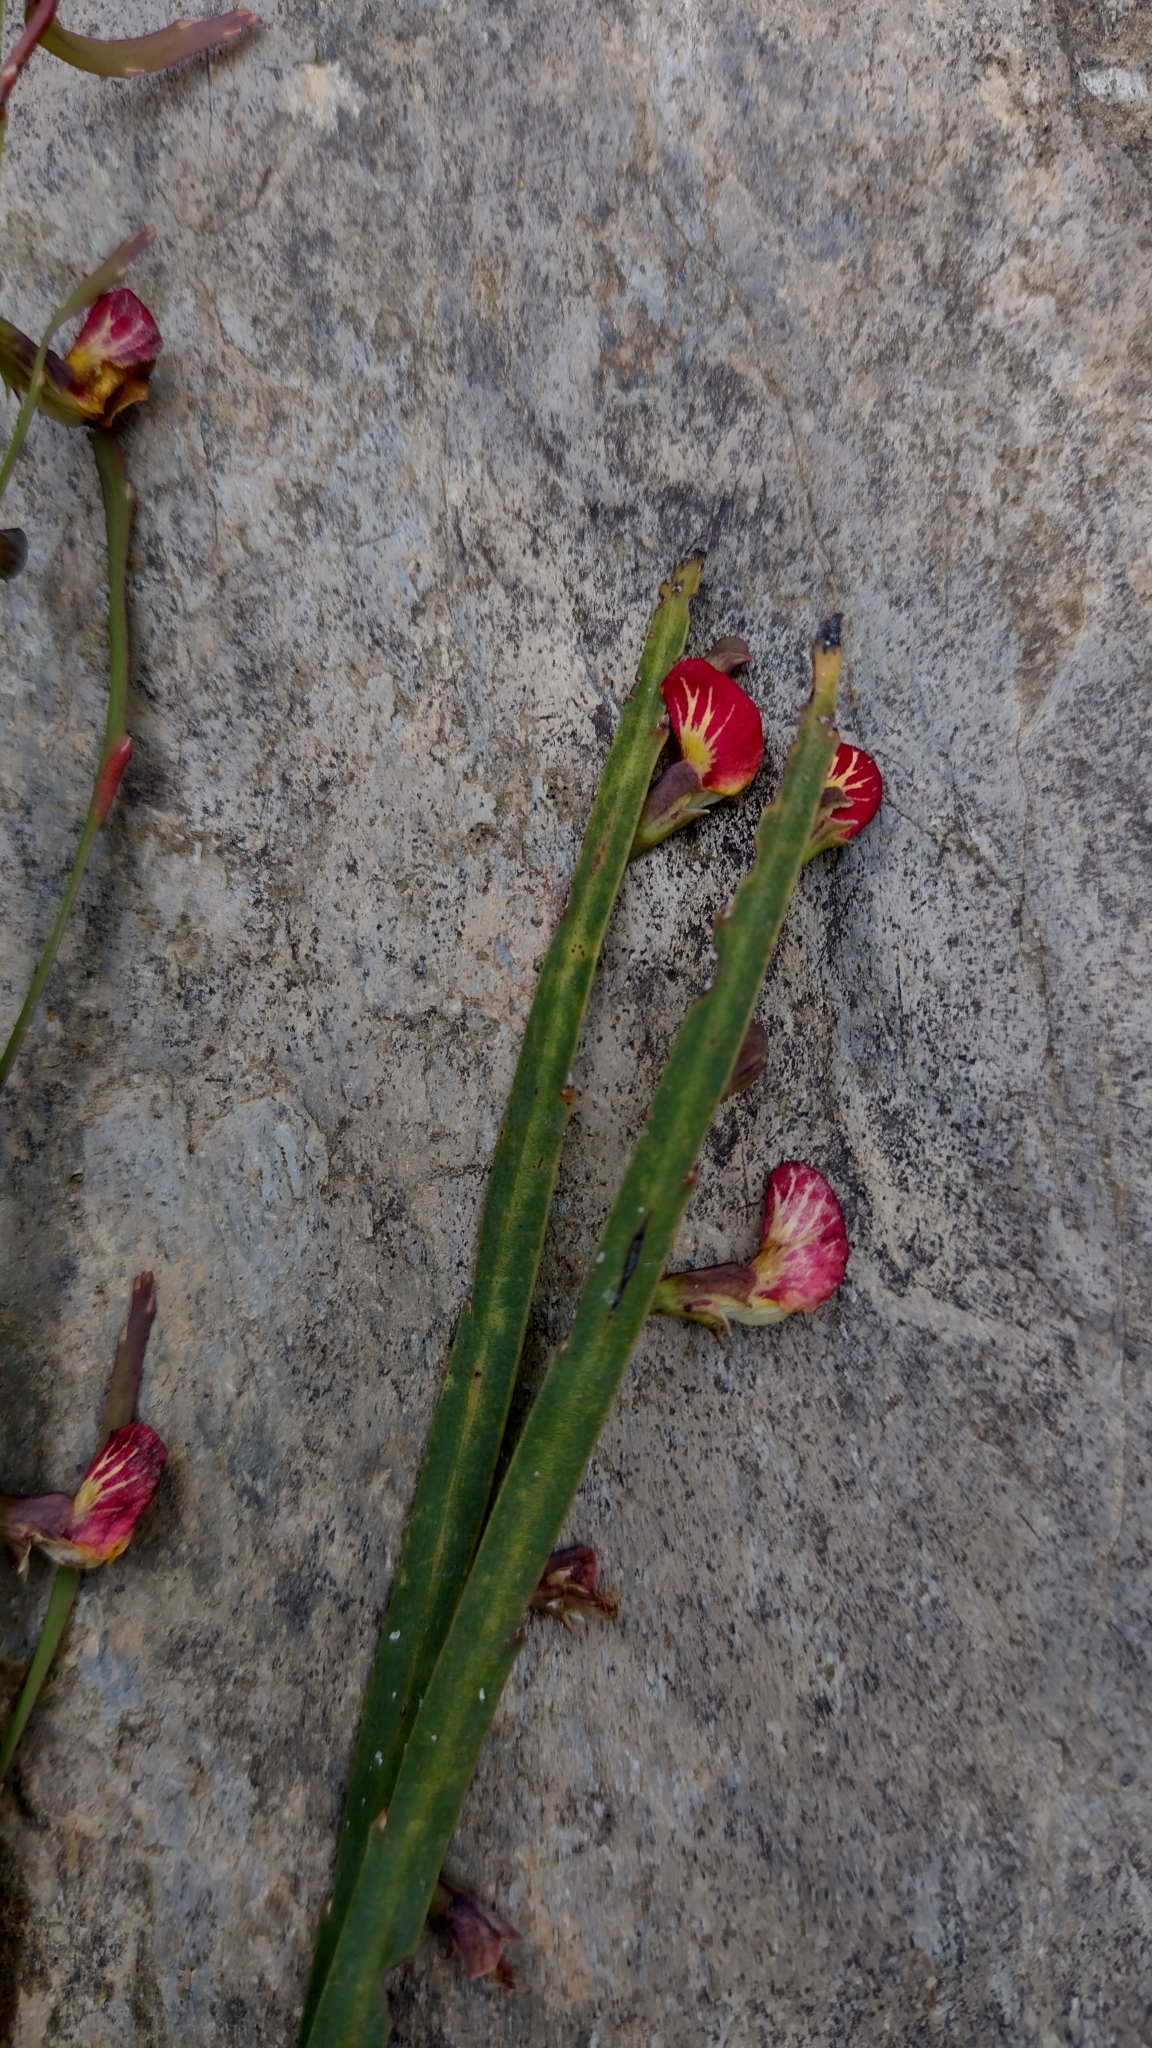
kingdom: Plantae
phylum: Tracheophyta
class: Magnoliopsida
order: Fabales
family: Fabaceae
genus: Bossiaea
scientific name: Bossiaea scolopendria
